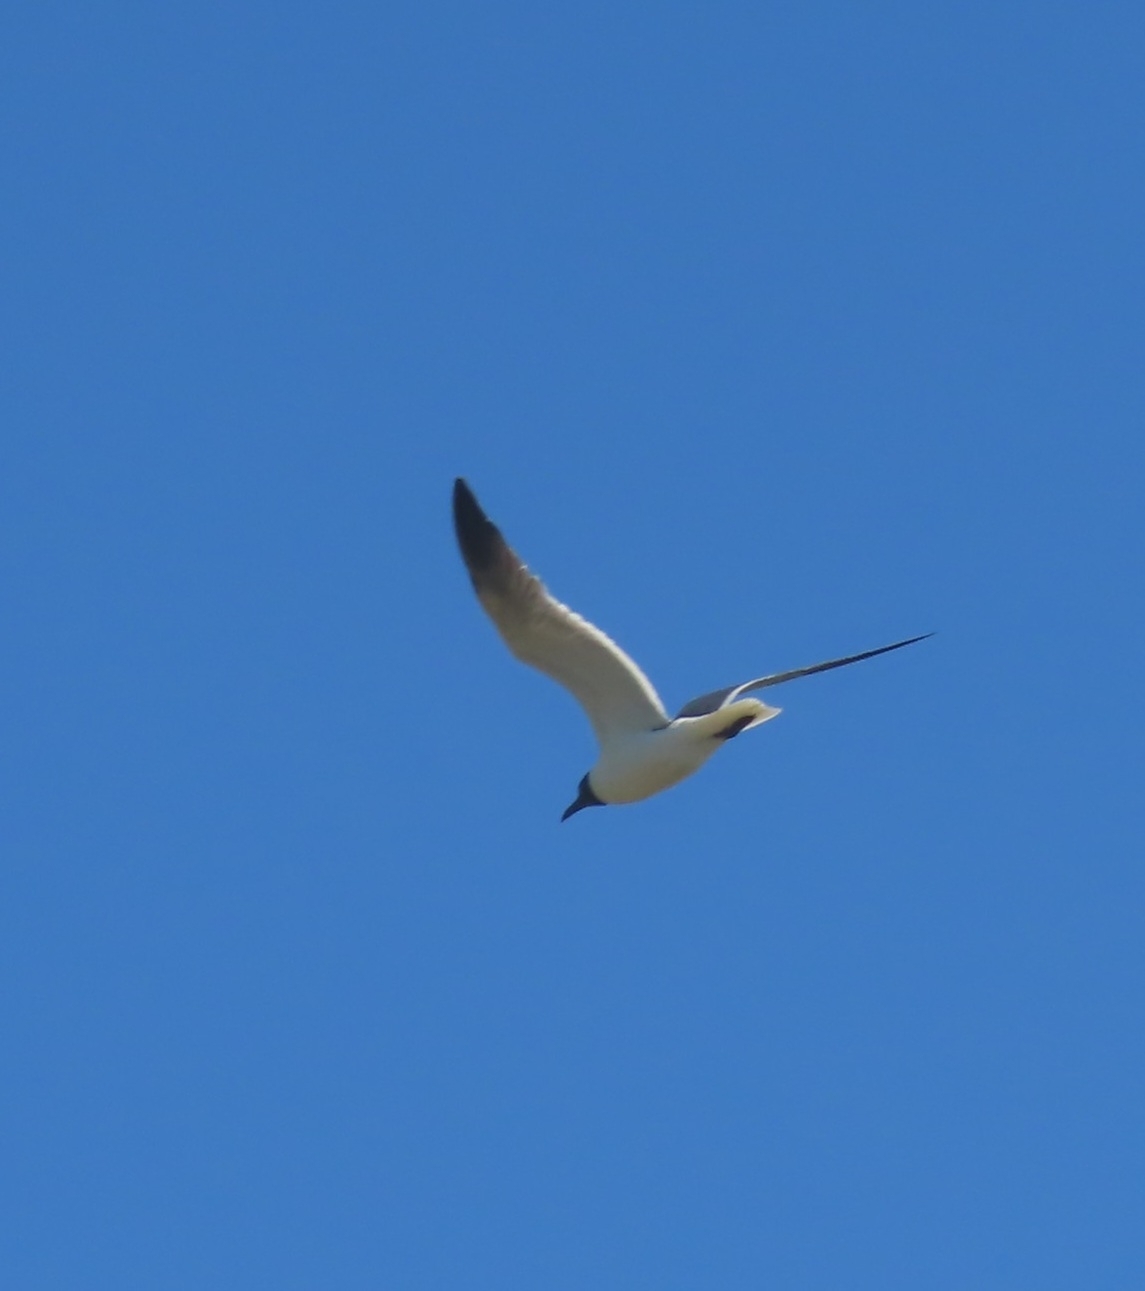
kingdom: Animalia
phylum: Chordata
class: Aves
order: Charadriiformes
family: Laridae
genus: Leucophaeus
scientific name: Leucophaeus atricilla
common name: Laughing gull
